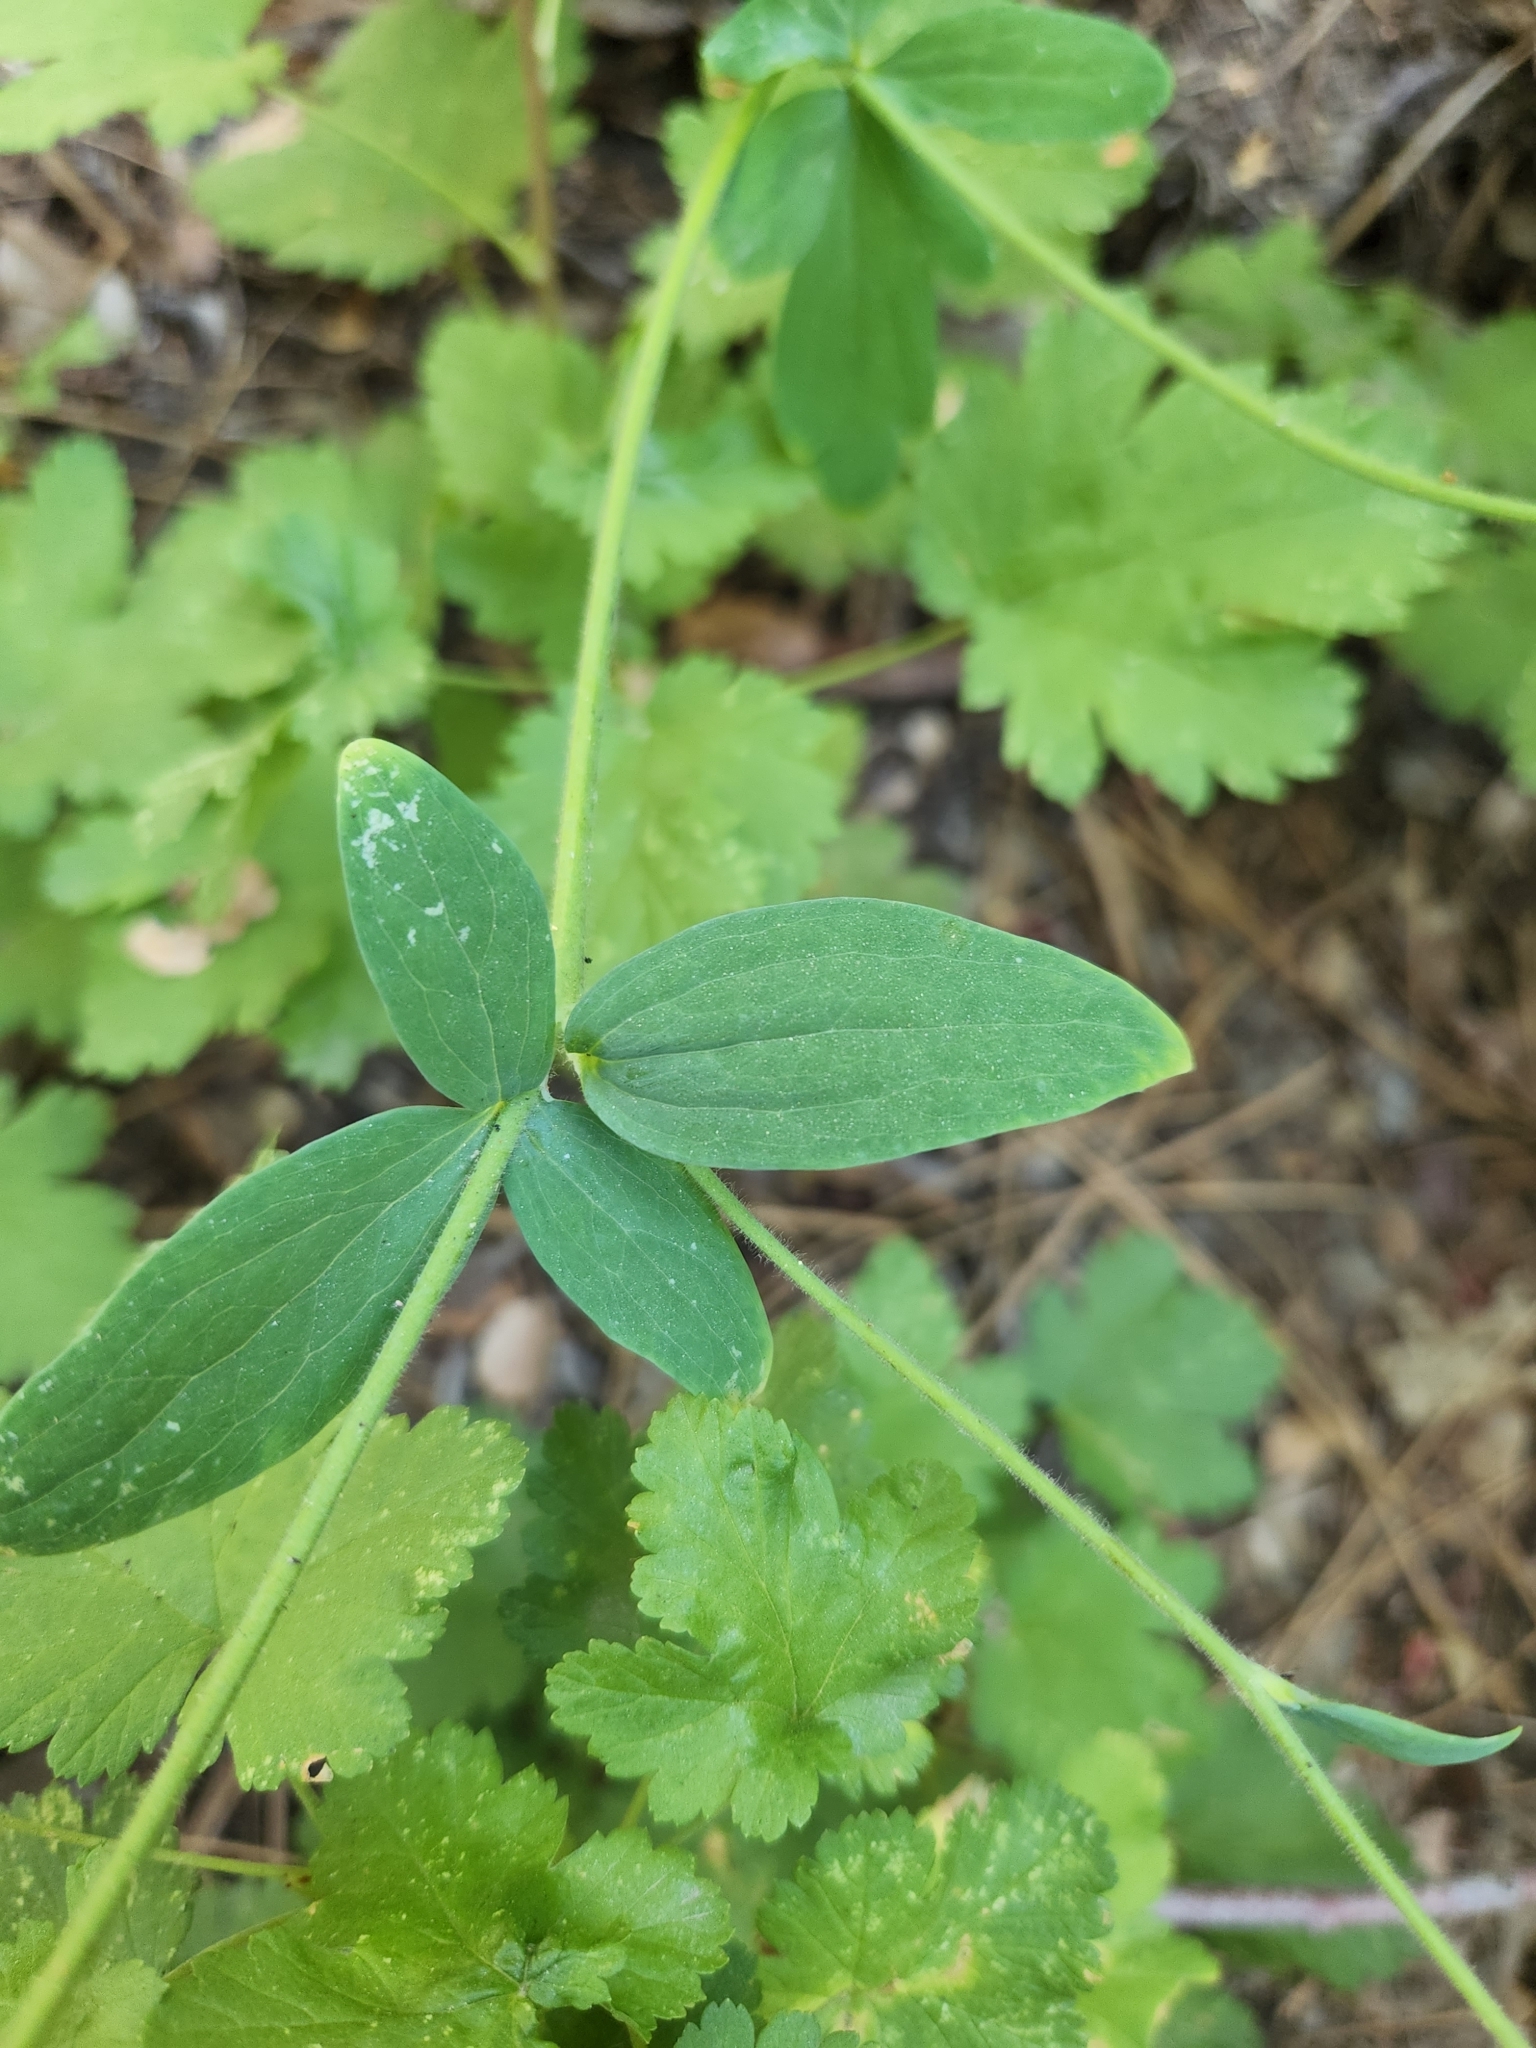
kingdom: Plantae
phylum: Tracheophyta
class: Magnoliopsida
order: Ranunculales
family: Ranunculaceae
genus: Aquilegia
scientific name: Aquilegia formosa
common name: Sitka columbine
